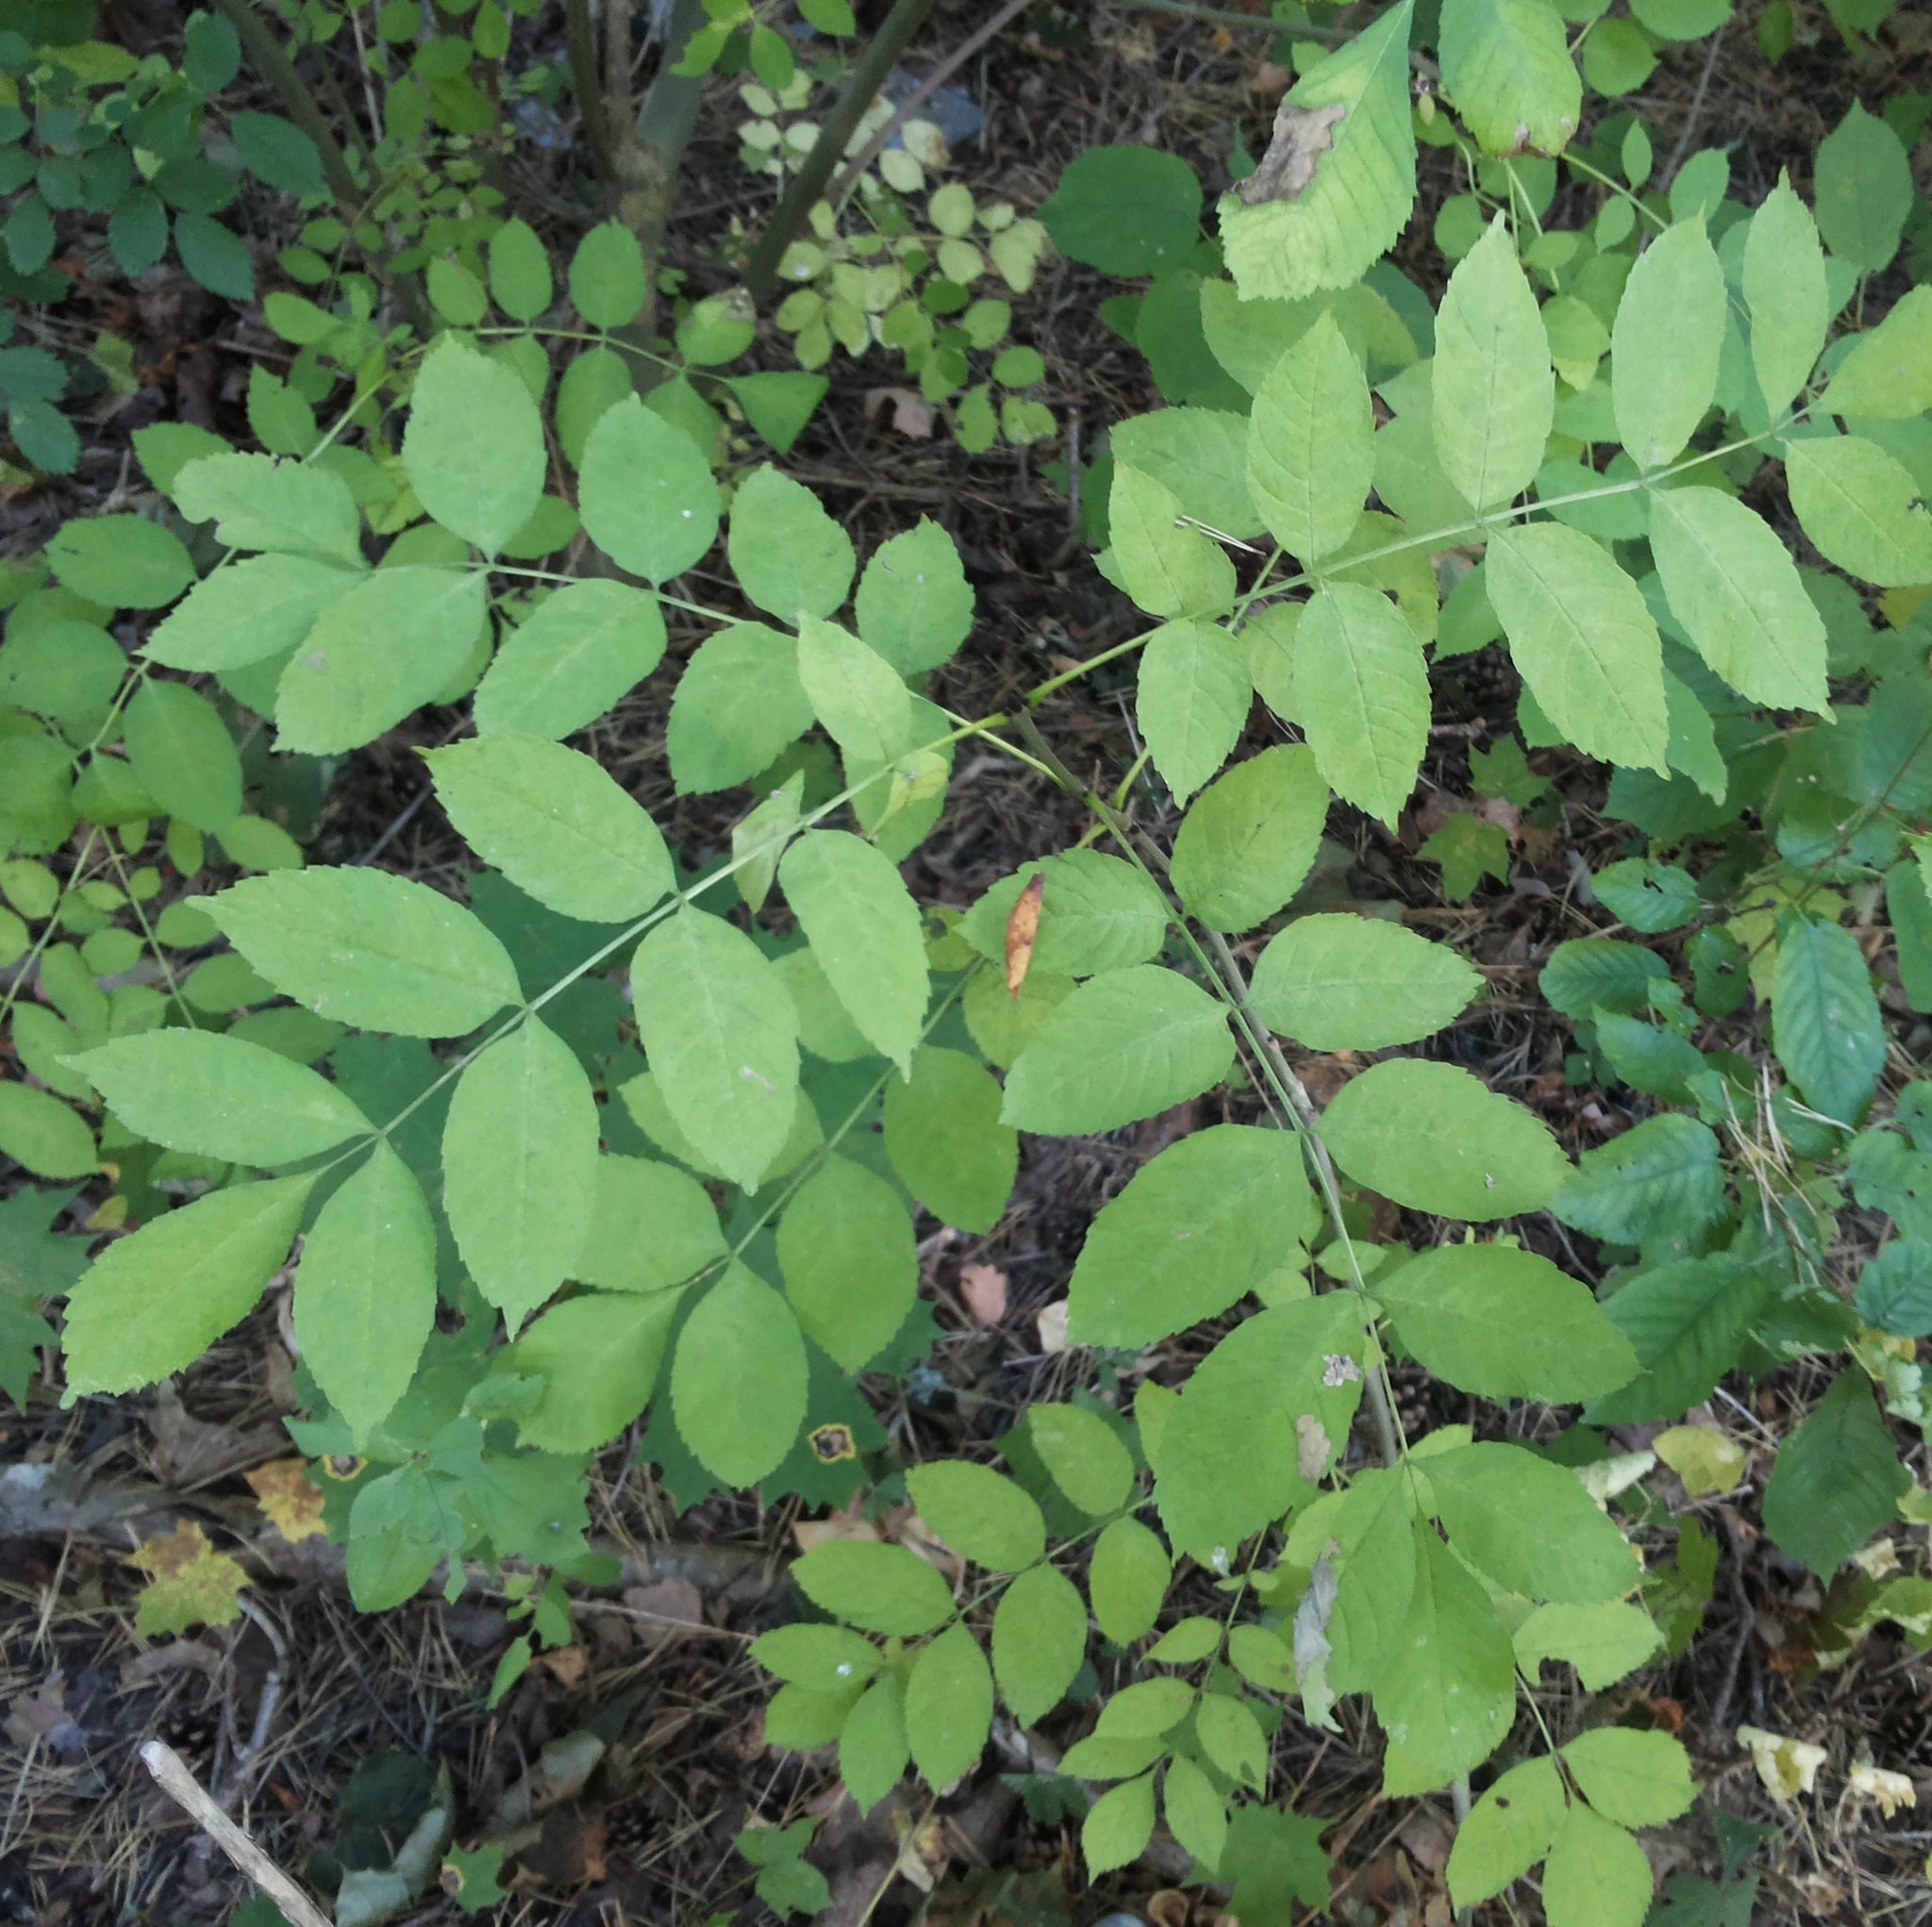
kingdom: Plantae
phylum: Tracheophyta
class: Magnoliopsida
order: Lamiales
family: Oleaceae
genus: Fraxinus
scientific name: Fraxinus excelsior
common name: European ash
